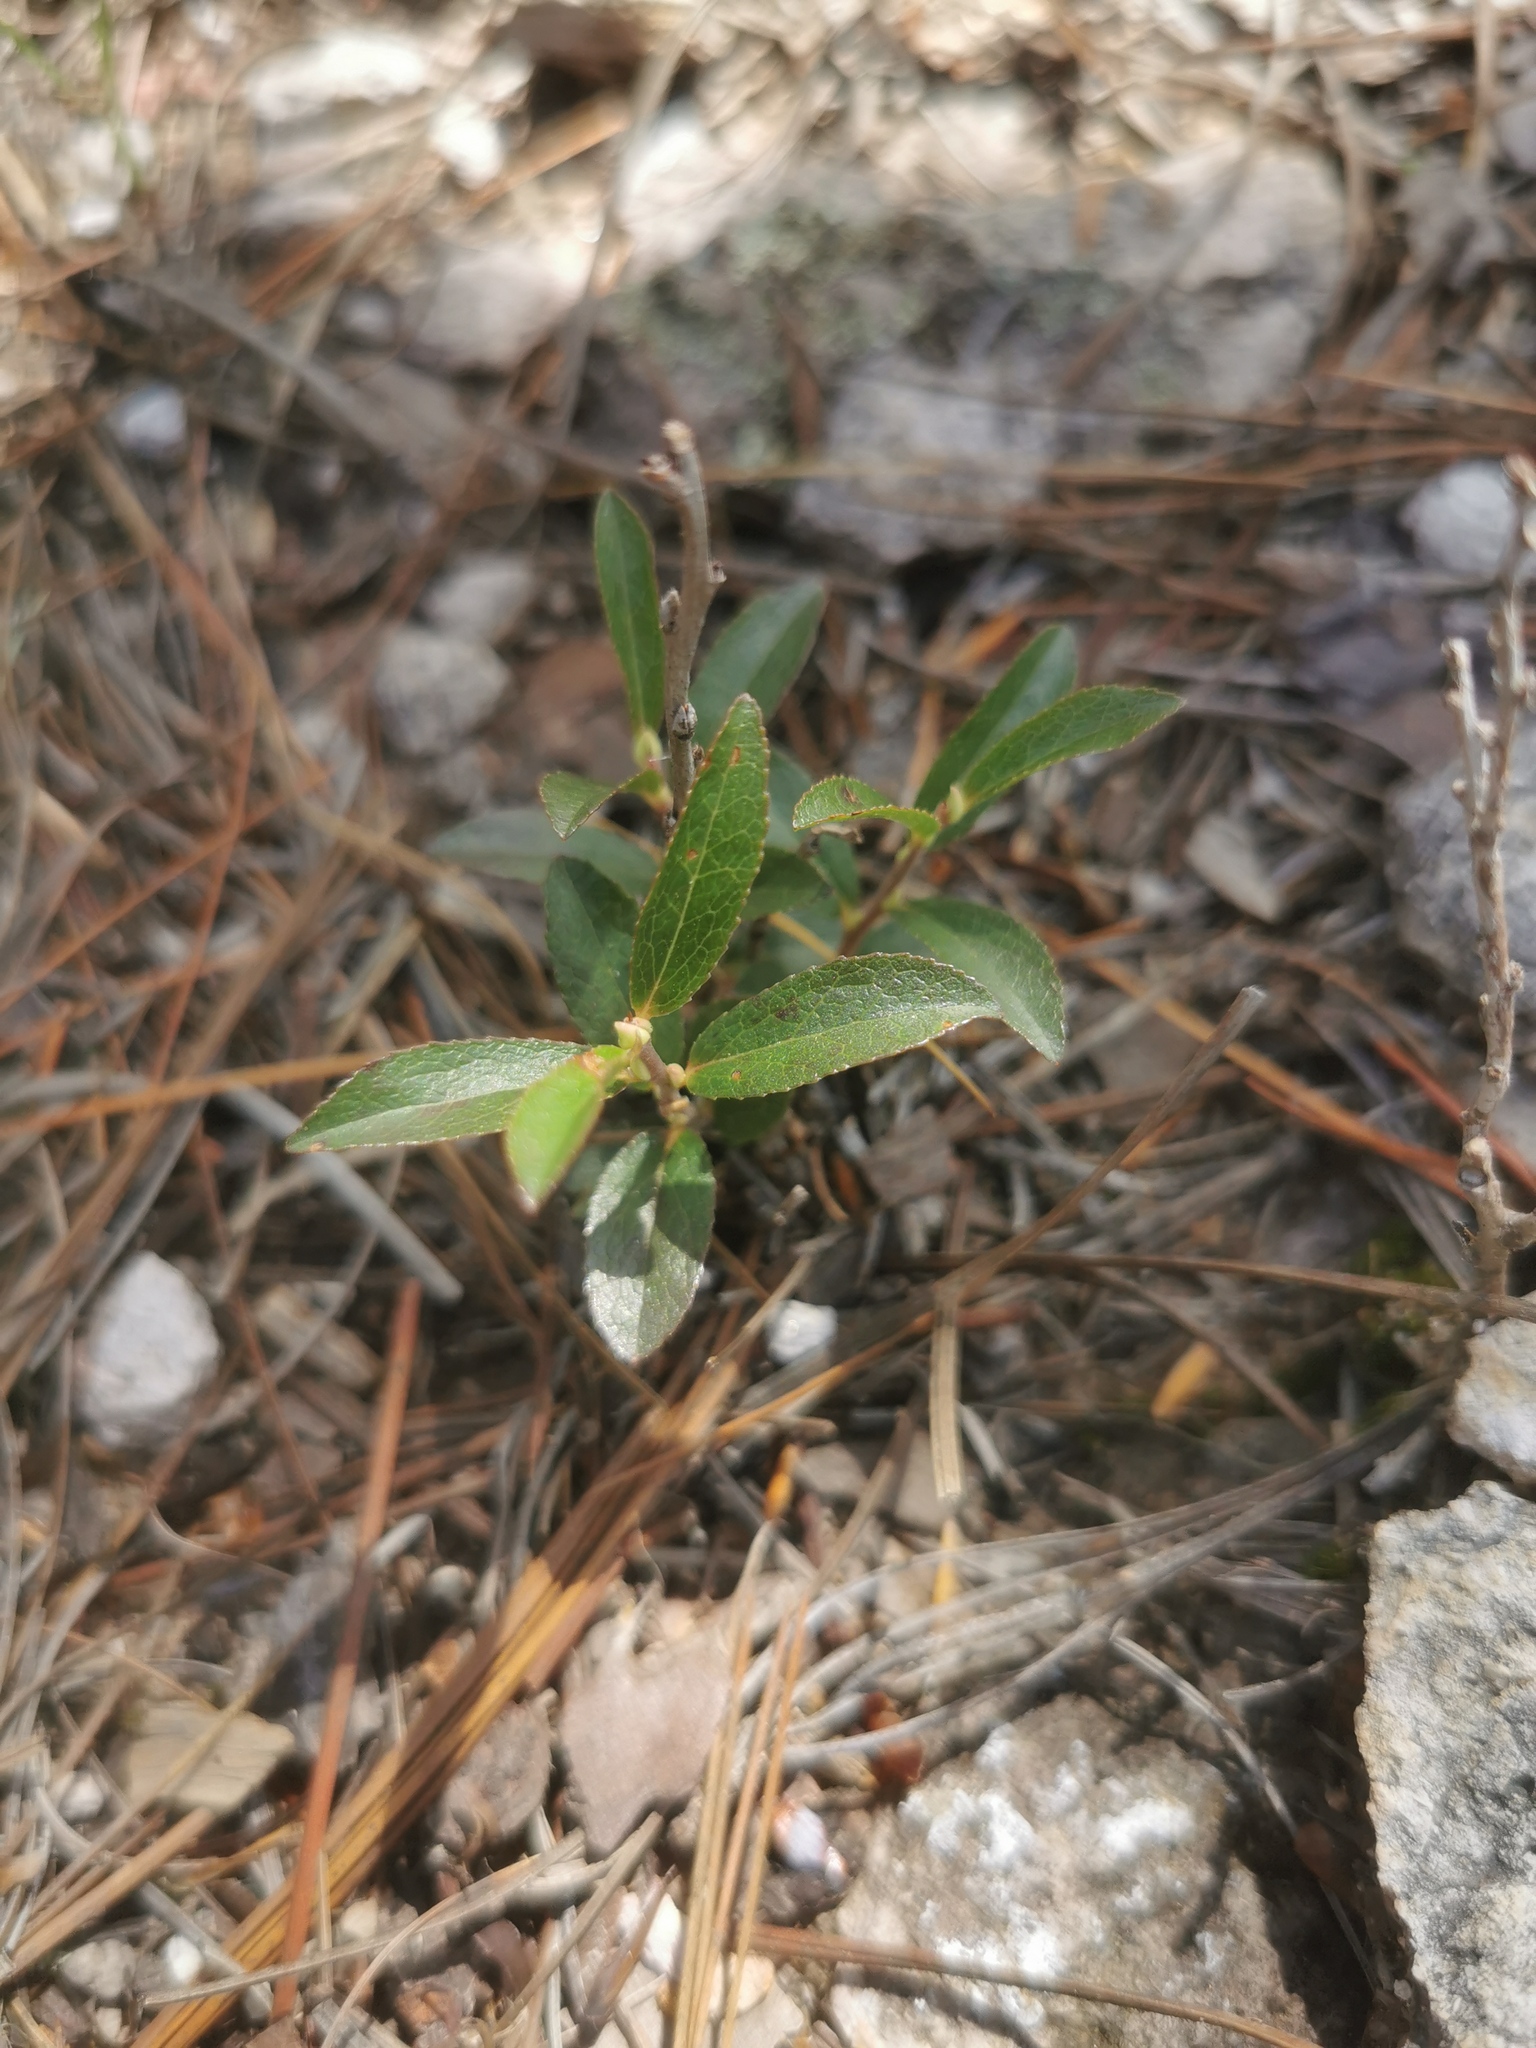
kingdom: Plantae
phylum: Tracheophyta
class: Magnoliopsida
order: Ericales
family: Ericaceae
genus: Vaccinium
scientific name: Vaccinium cespitosum
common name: Dwarf bilberry
